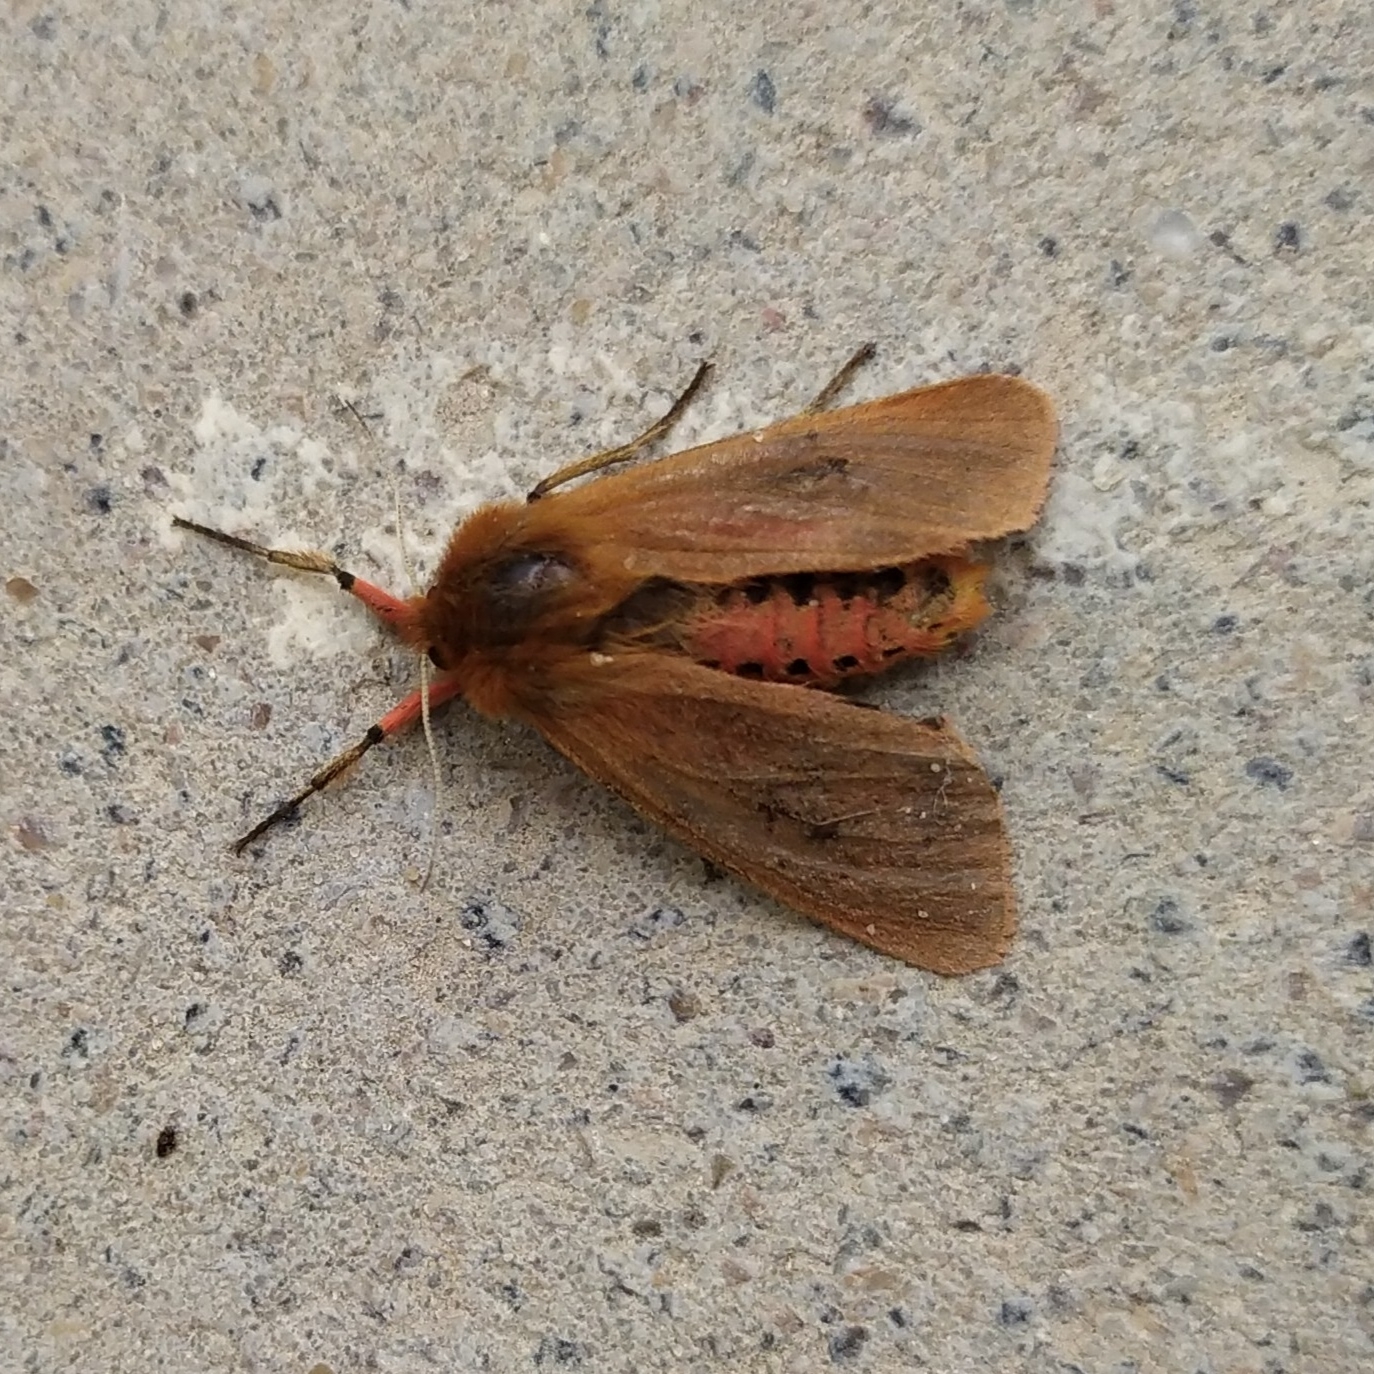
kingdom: Animalia
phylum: Arthropoda
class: Insecta
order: Lepidoptera
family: Erebidae
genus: Phragmatobia
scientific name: Phragmatobia fuliginosa
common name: Ruby tiger
